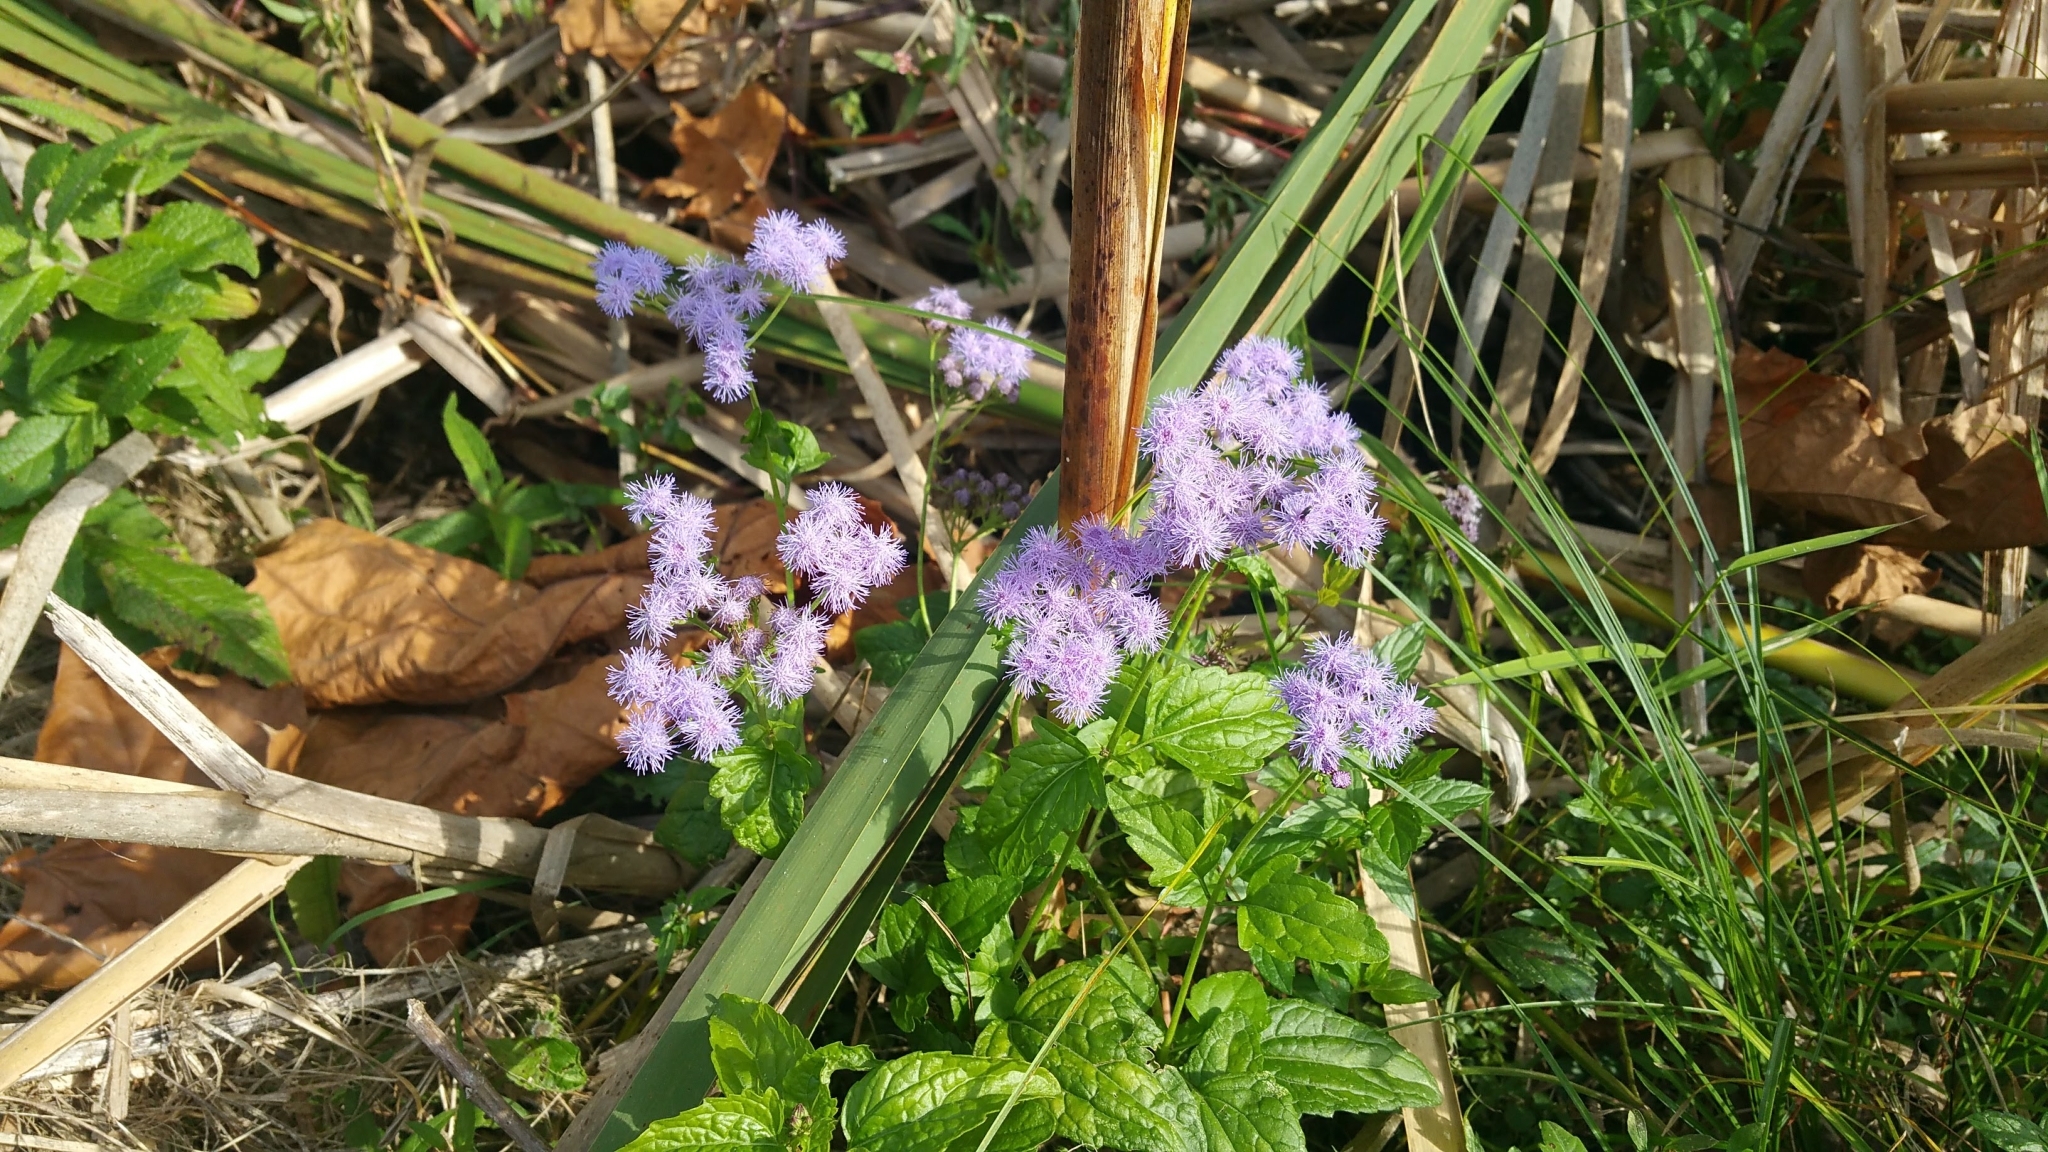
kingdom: Plantae
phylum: Tracheophyta
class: Magnoliopsida
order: Asterales
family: Asteraceae
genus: Conoclinium
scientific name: Conoclinium coelestinum
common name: Blue mistflower
